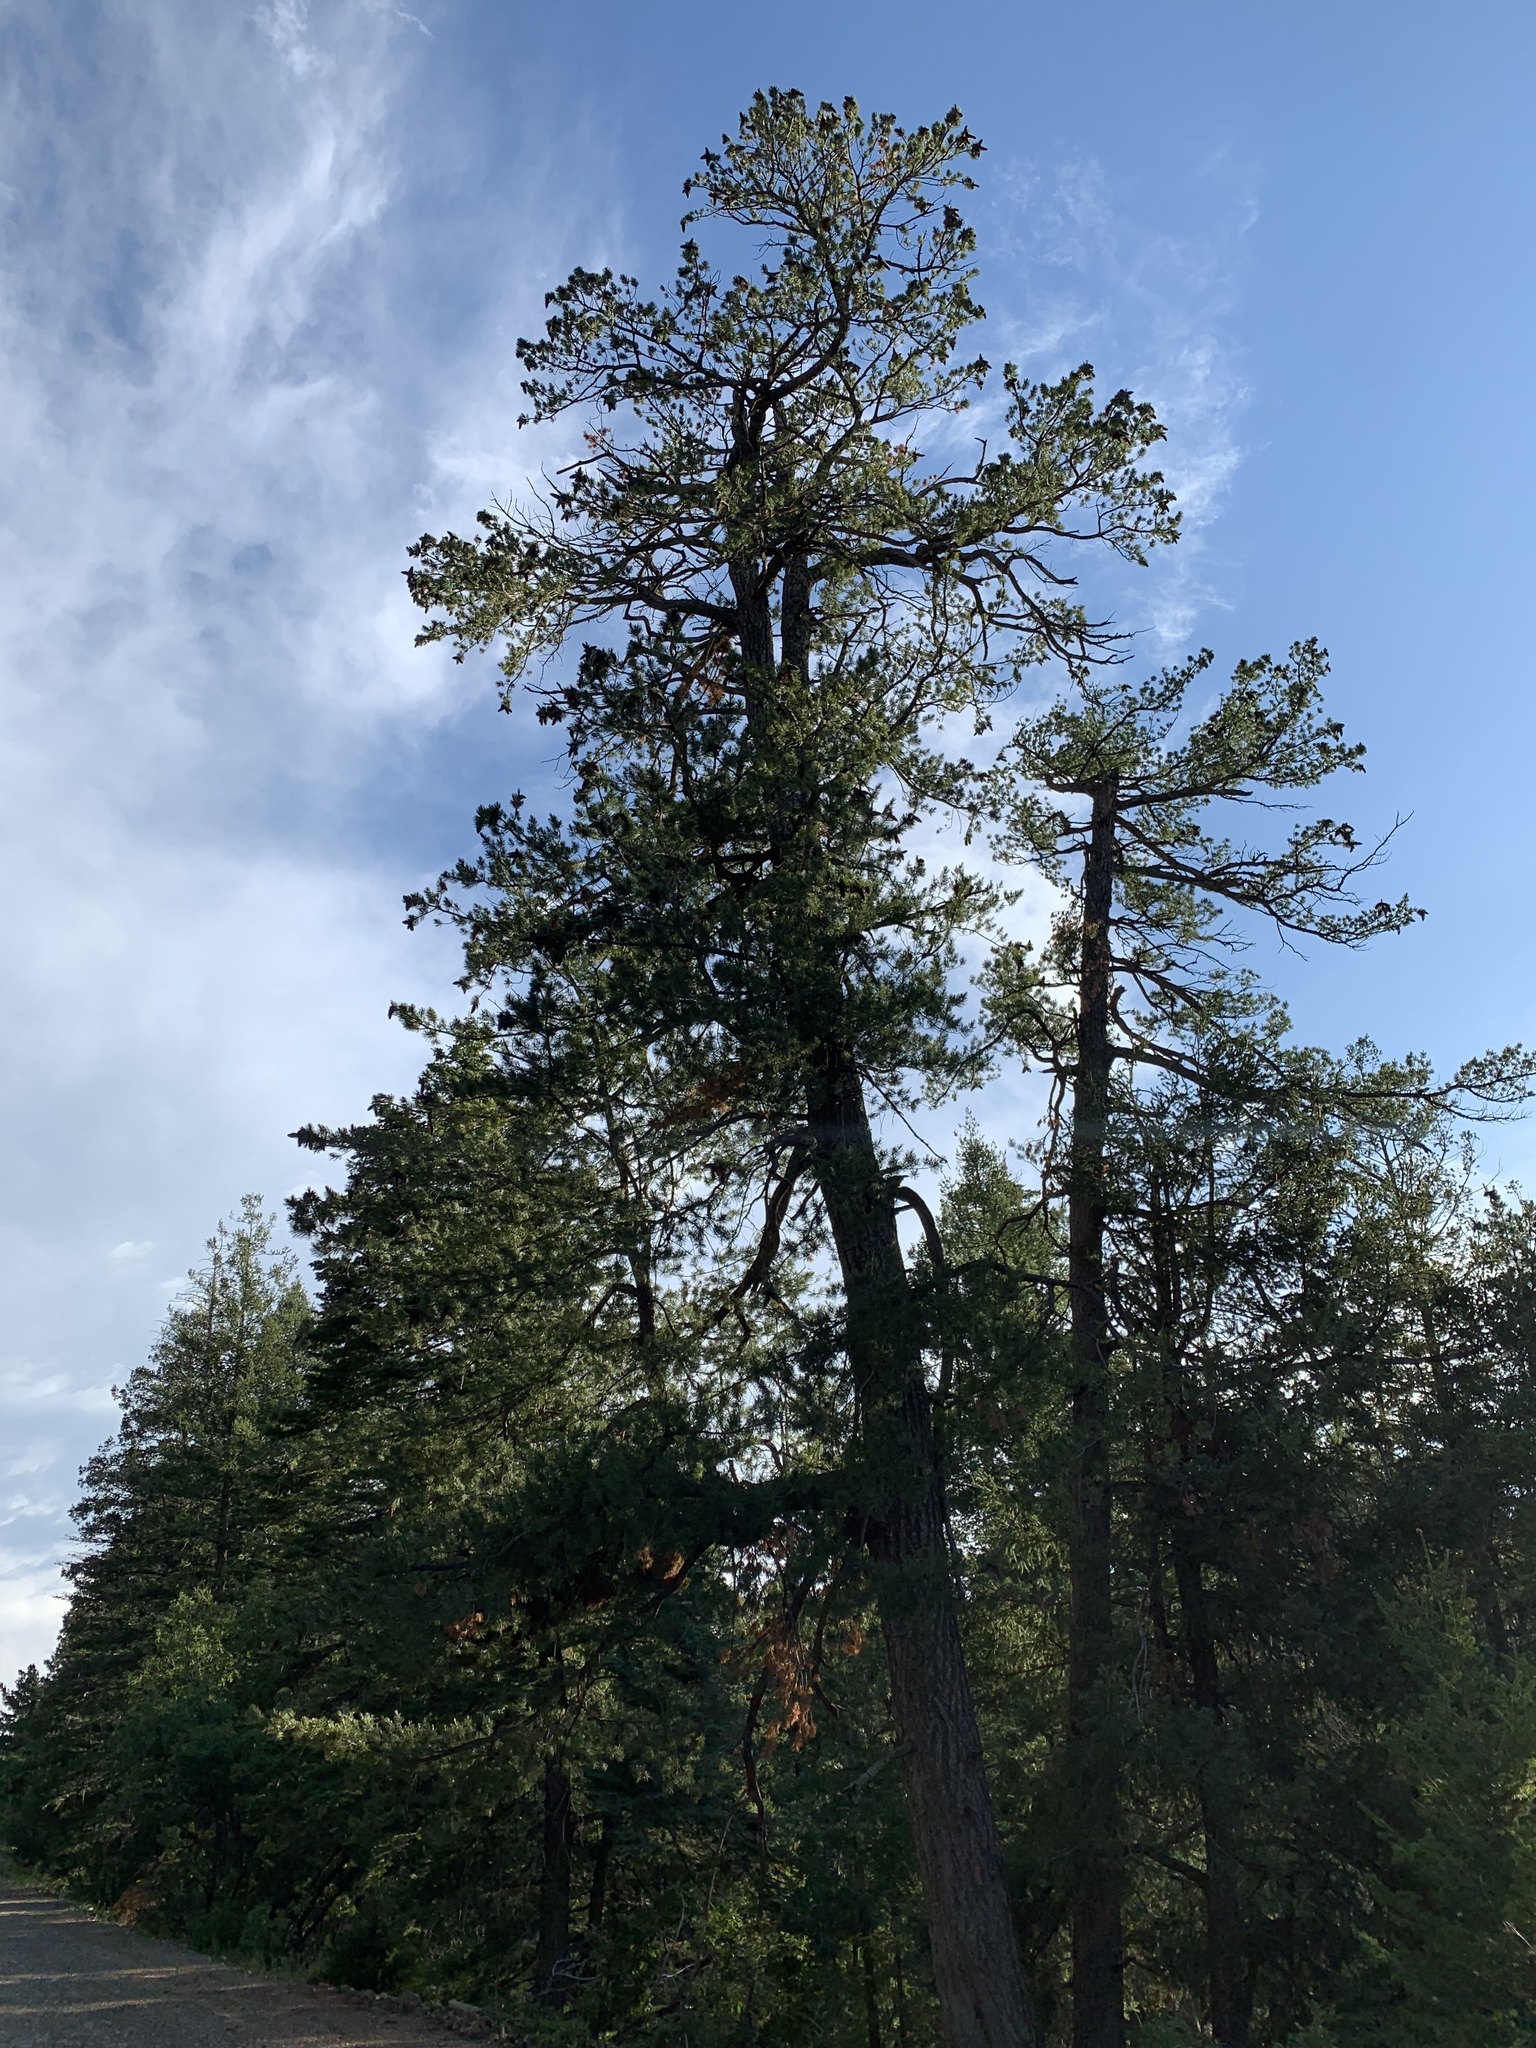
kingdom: Plantae
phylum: Tracheophyta
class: Pinopsida
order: Pinales
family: Pinaceae
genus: Pinus
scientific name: Pinus strobiformis
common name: Southwestern white pine
